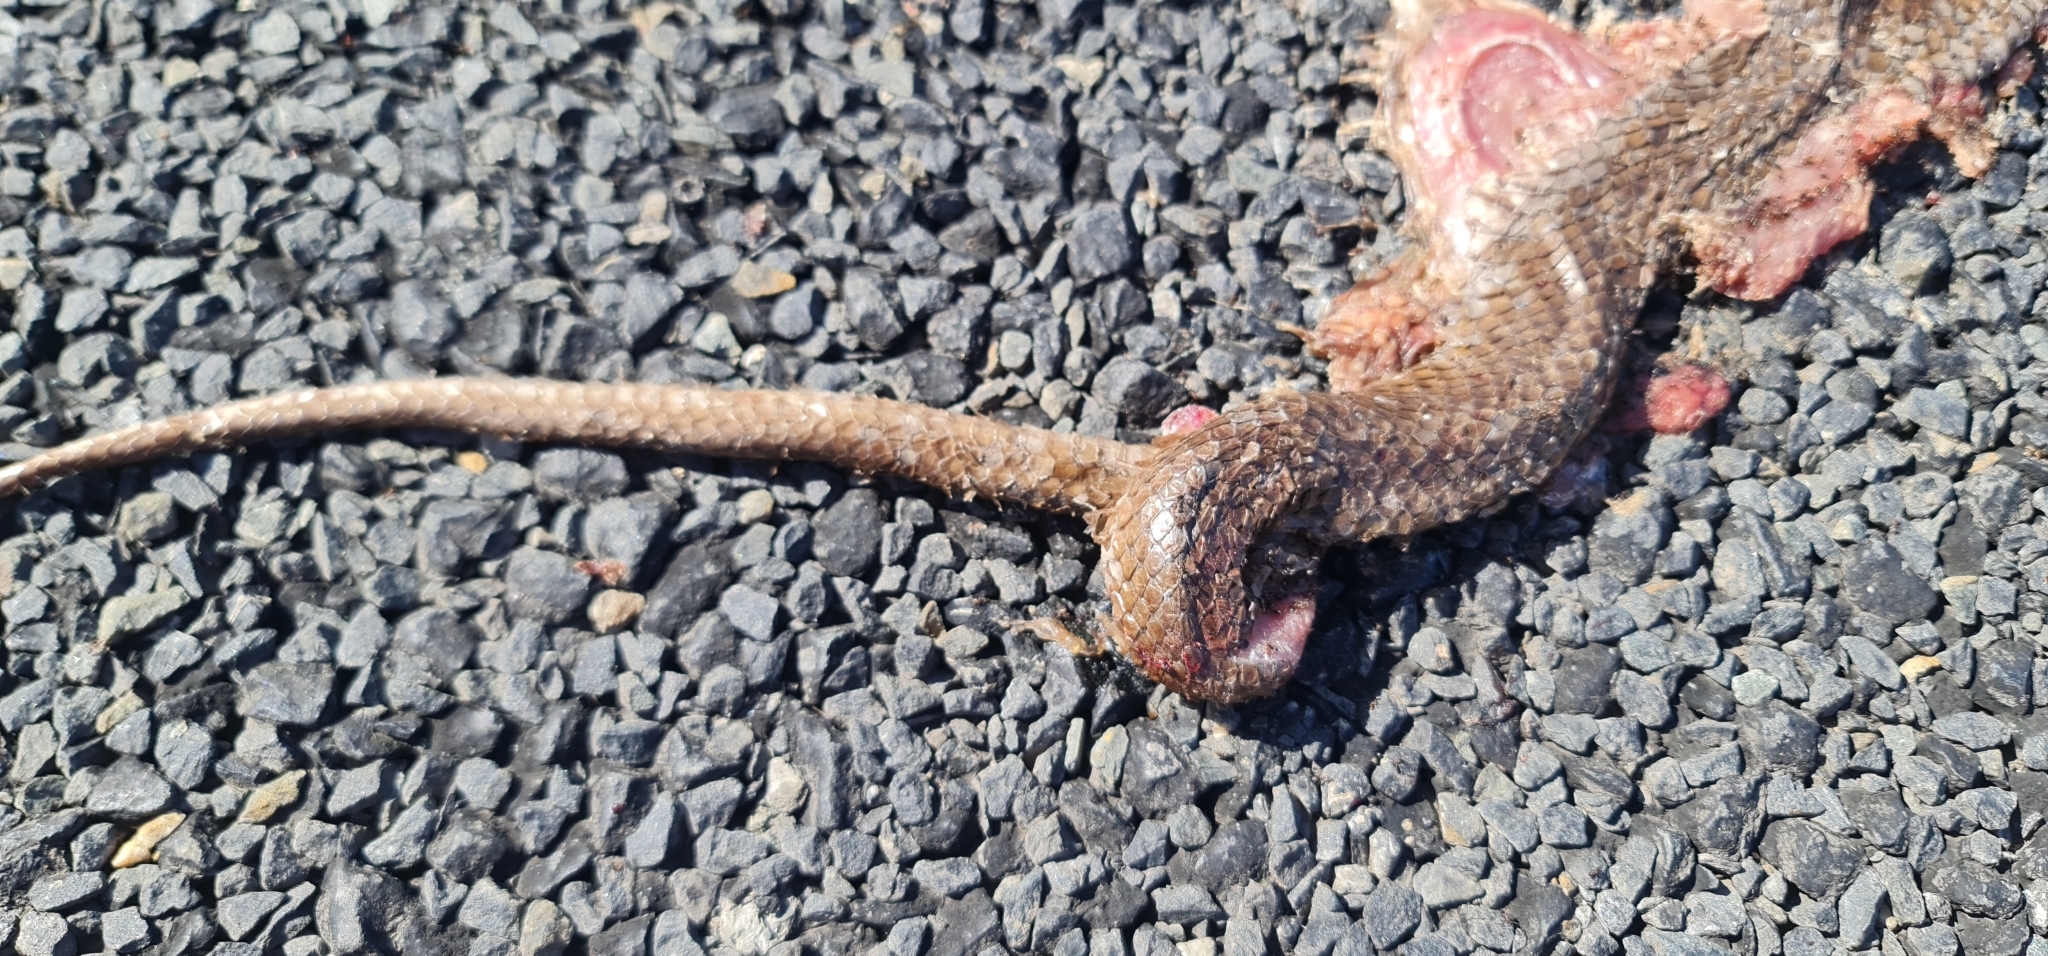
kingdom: Animalia
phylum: Chordata
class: Squamata
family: Elapidae
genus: Pseudonaja
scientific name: Pseudonaja textilis
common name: Eastern brown snake
